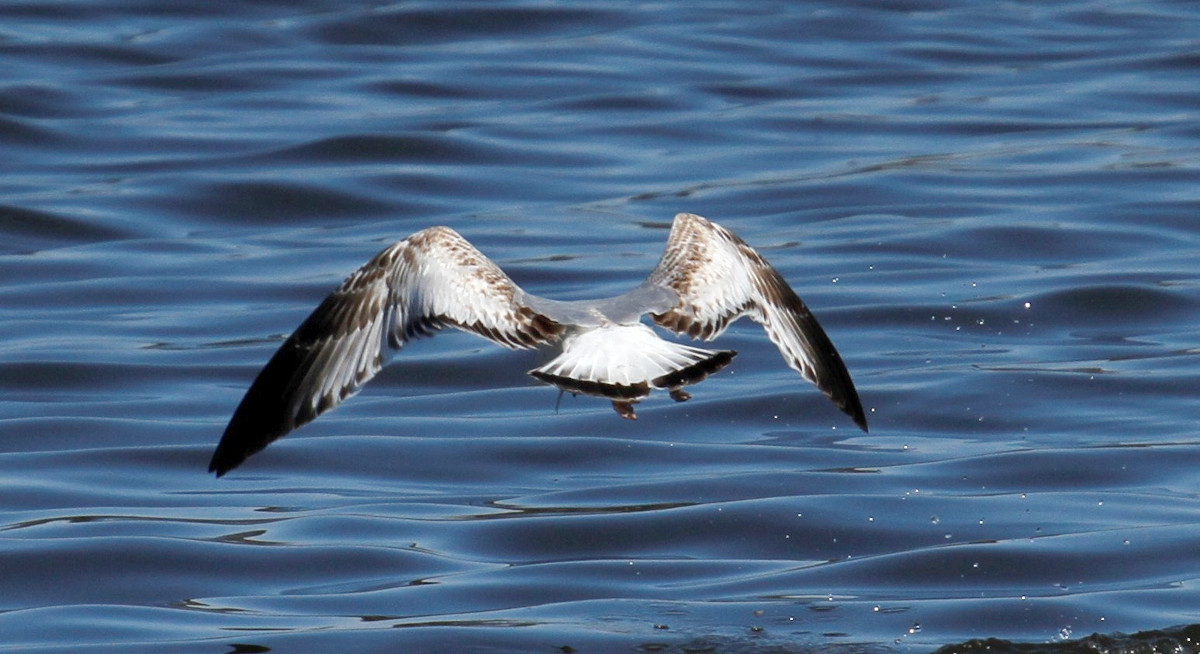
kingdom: Animalia
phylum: Chordata
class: Aves
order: Charadriiformes
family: Laridae
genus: Larus
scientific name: Larus delawarensis
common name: Ring-billed gull
